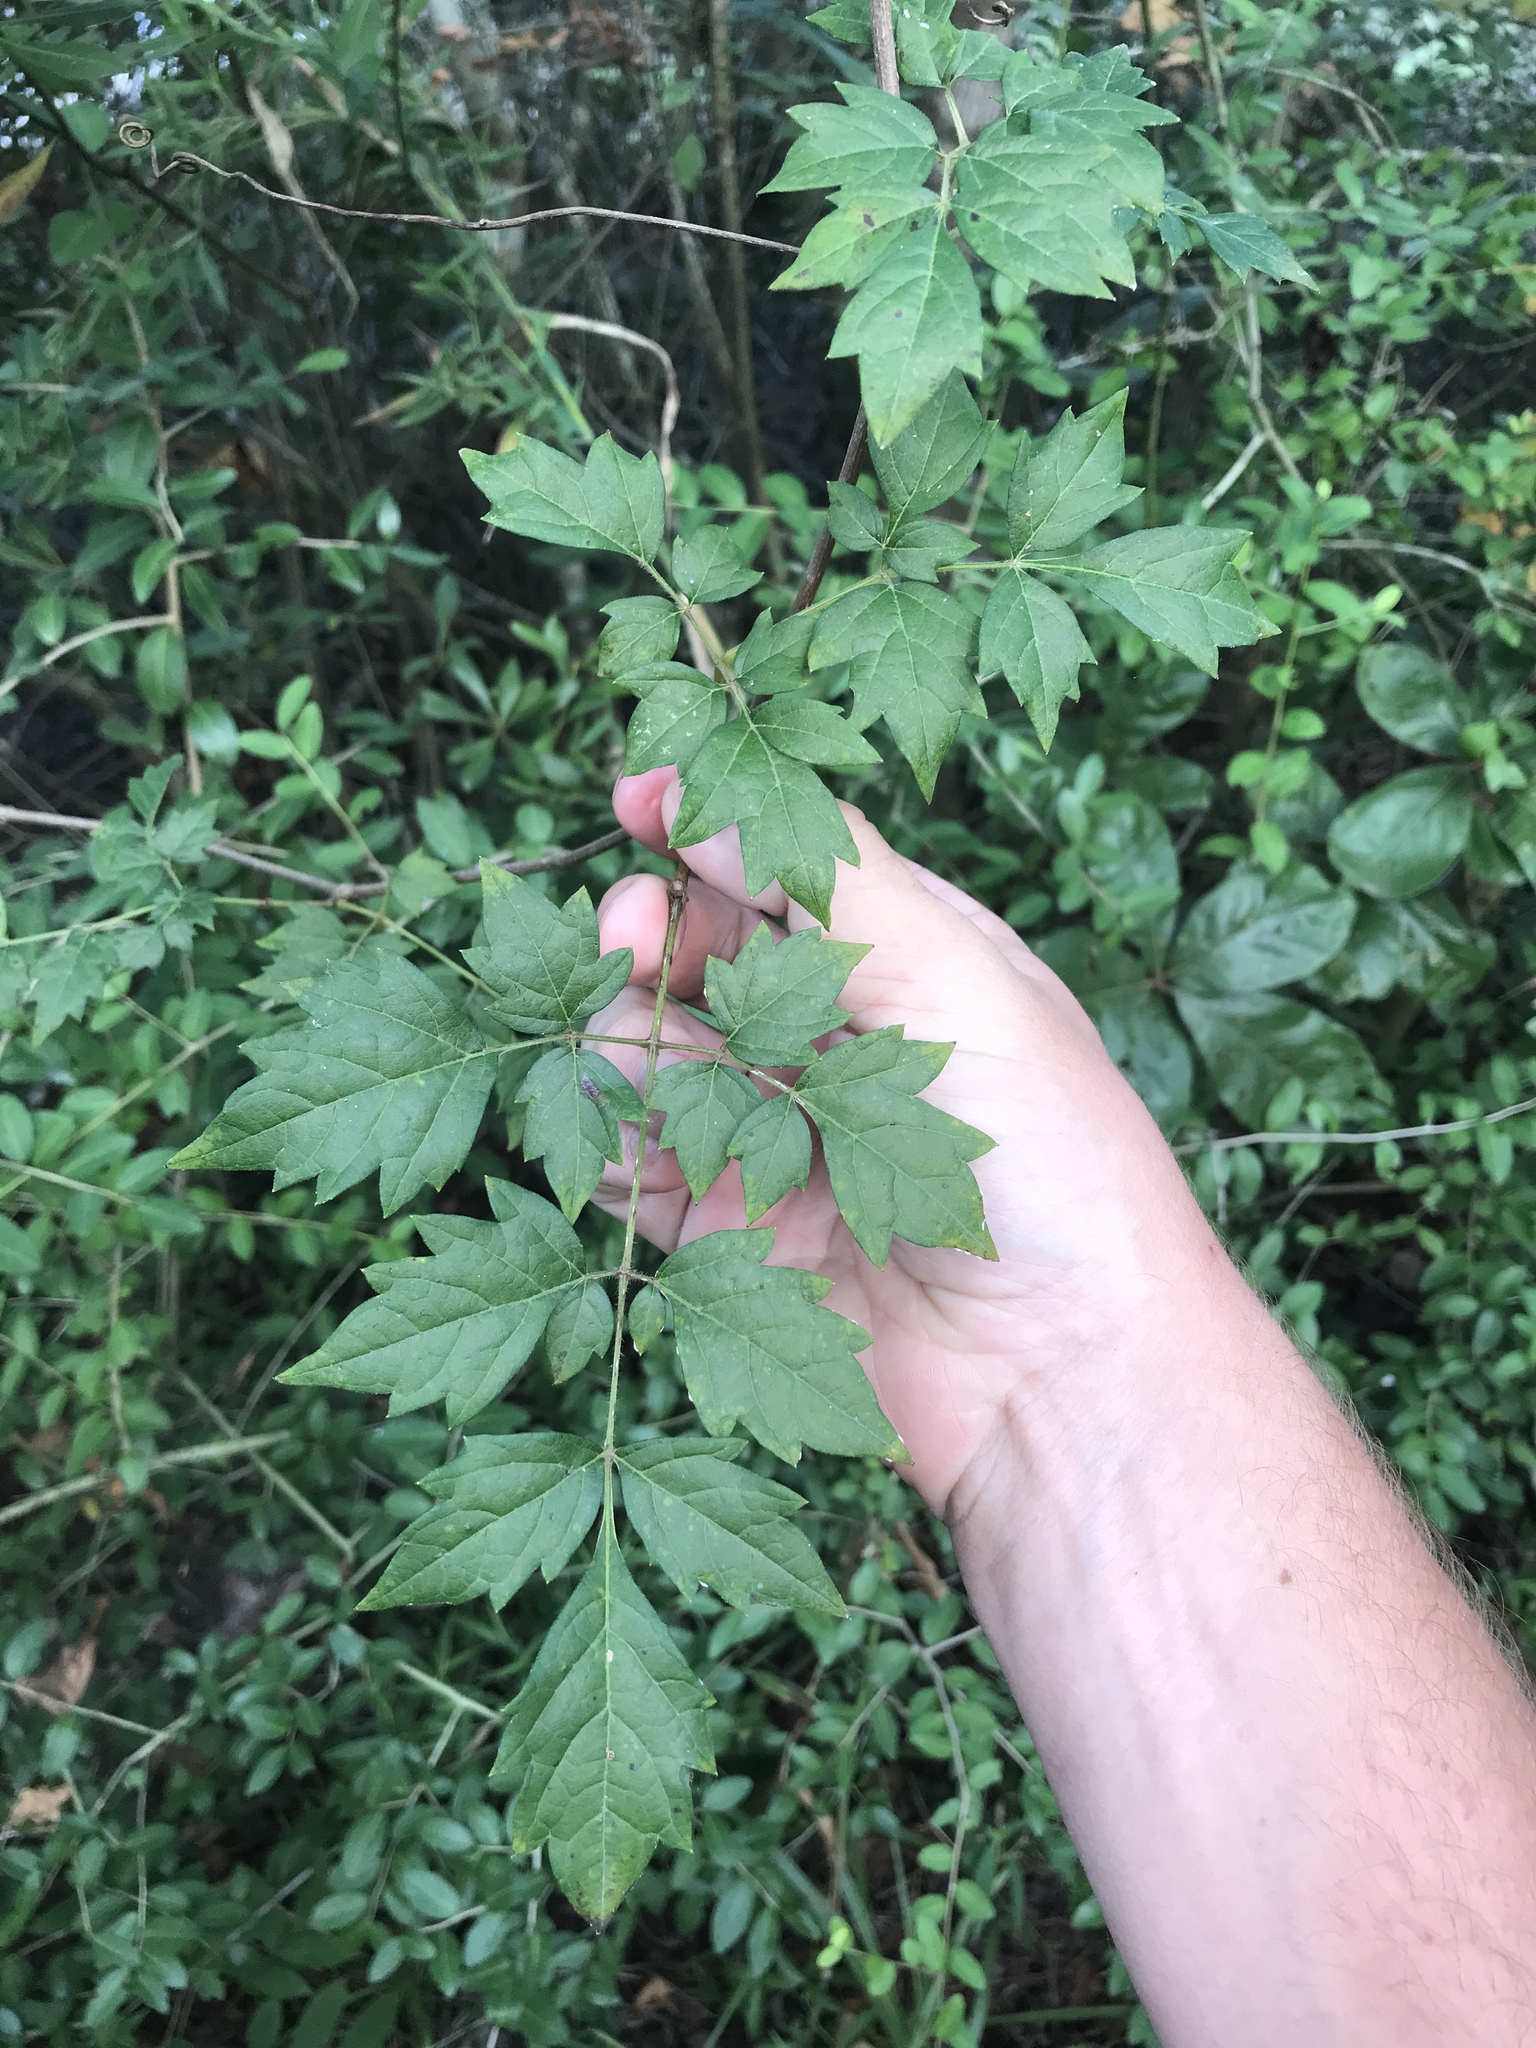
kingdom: Plantae
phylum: Tracheophyta
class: Magnoliopsida
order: Vitales
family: Vitaceae
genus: Nekemias
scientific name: Nekemias arborea
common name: Peppervine
